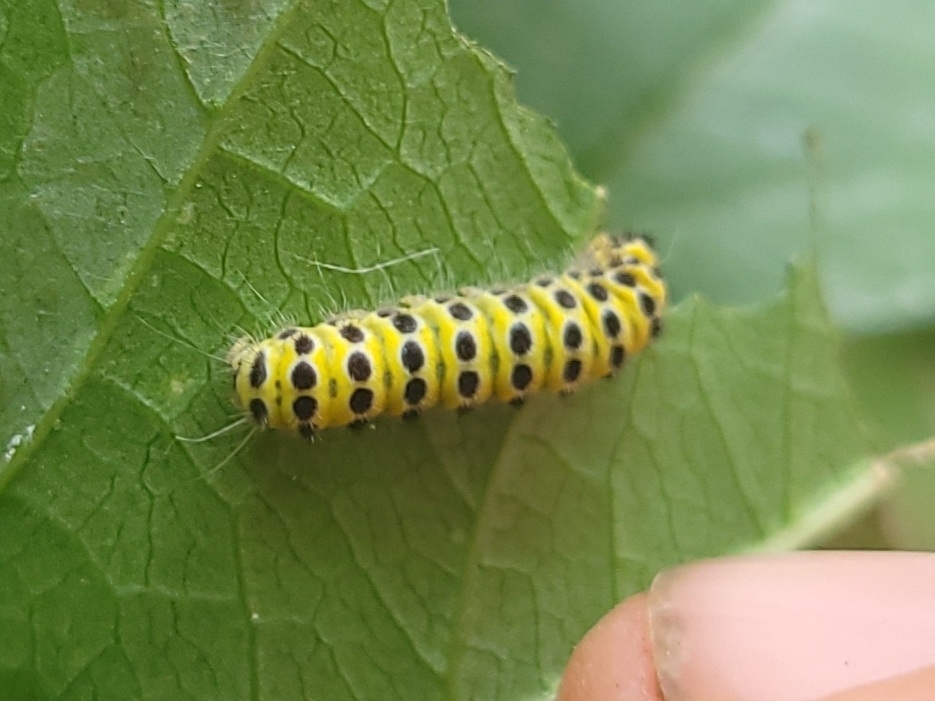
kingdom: Animalia
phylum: Arthropoda
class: Insecta
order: Lepidoptera
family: Zygaenidae
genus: Harrisina
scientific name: Harrisina americana
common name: Grapeleaf skeletonizer moth
